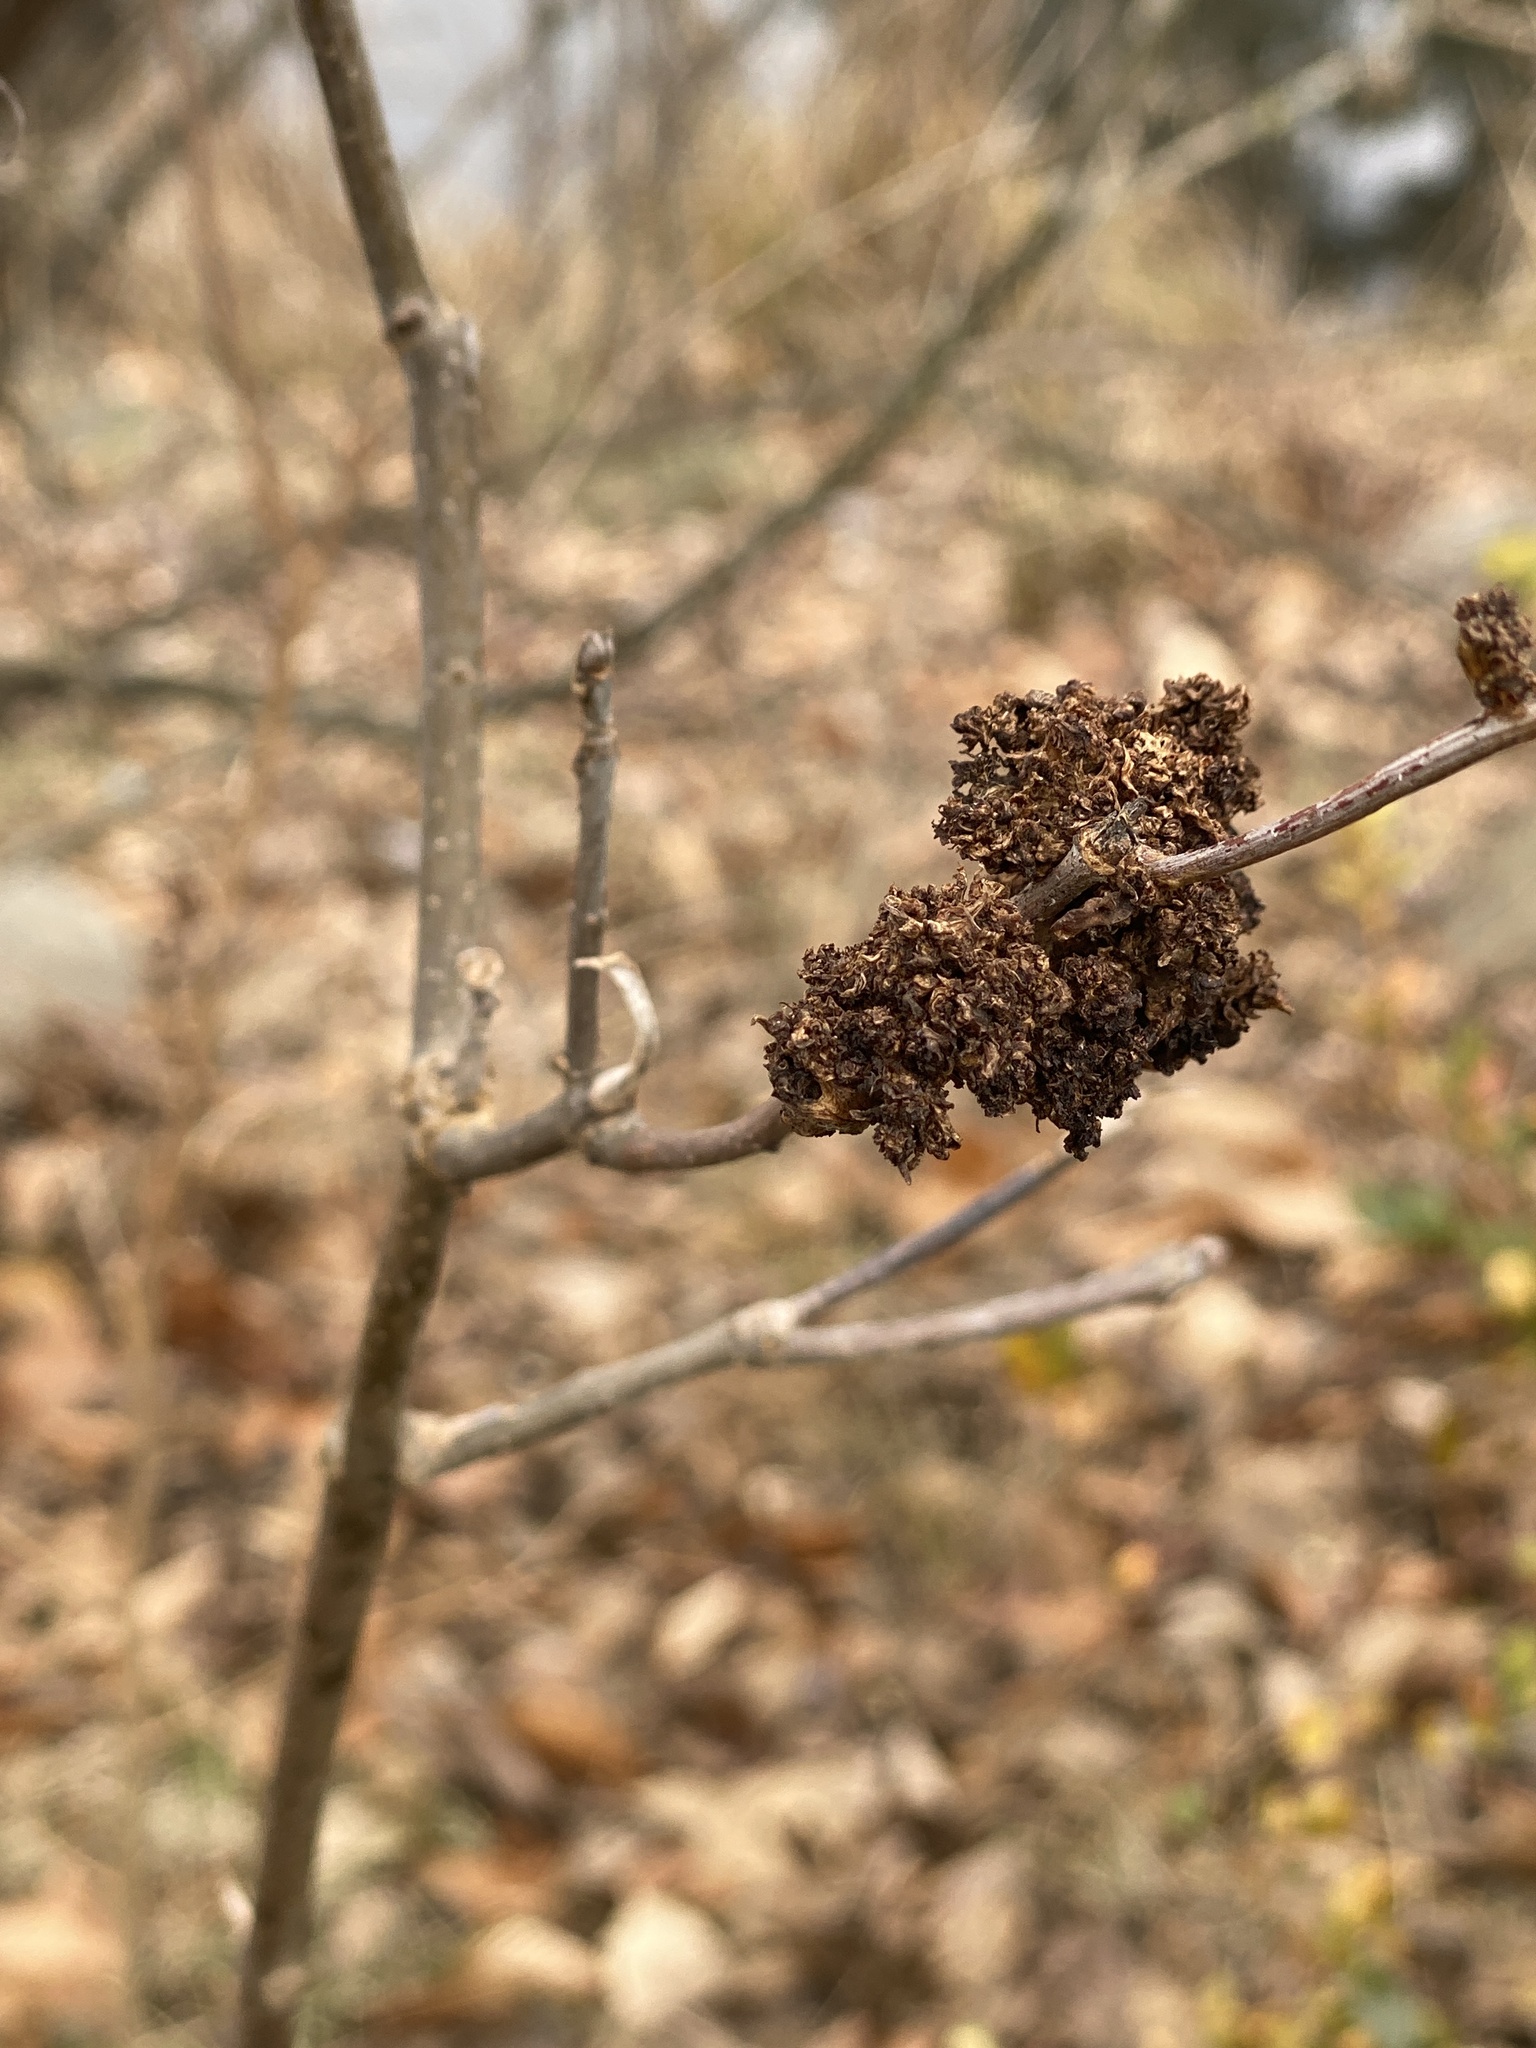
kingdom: Animalia
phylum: Arthropoda
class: Arachnida
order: Trombidiformes
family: Eriophyidae
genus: Aceria
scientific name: Aceria fraxiniflora
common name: Ash flower gall mite
